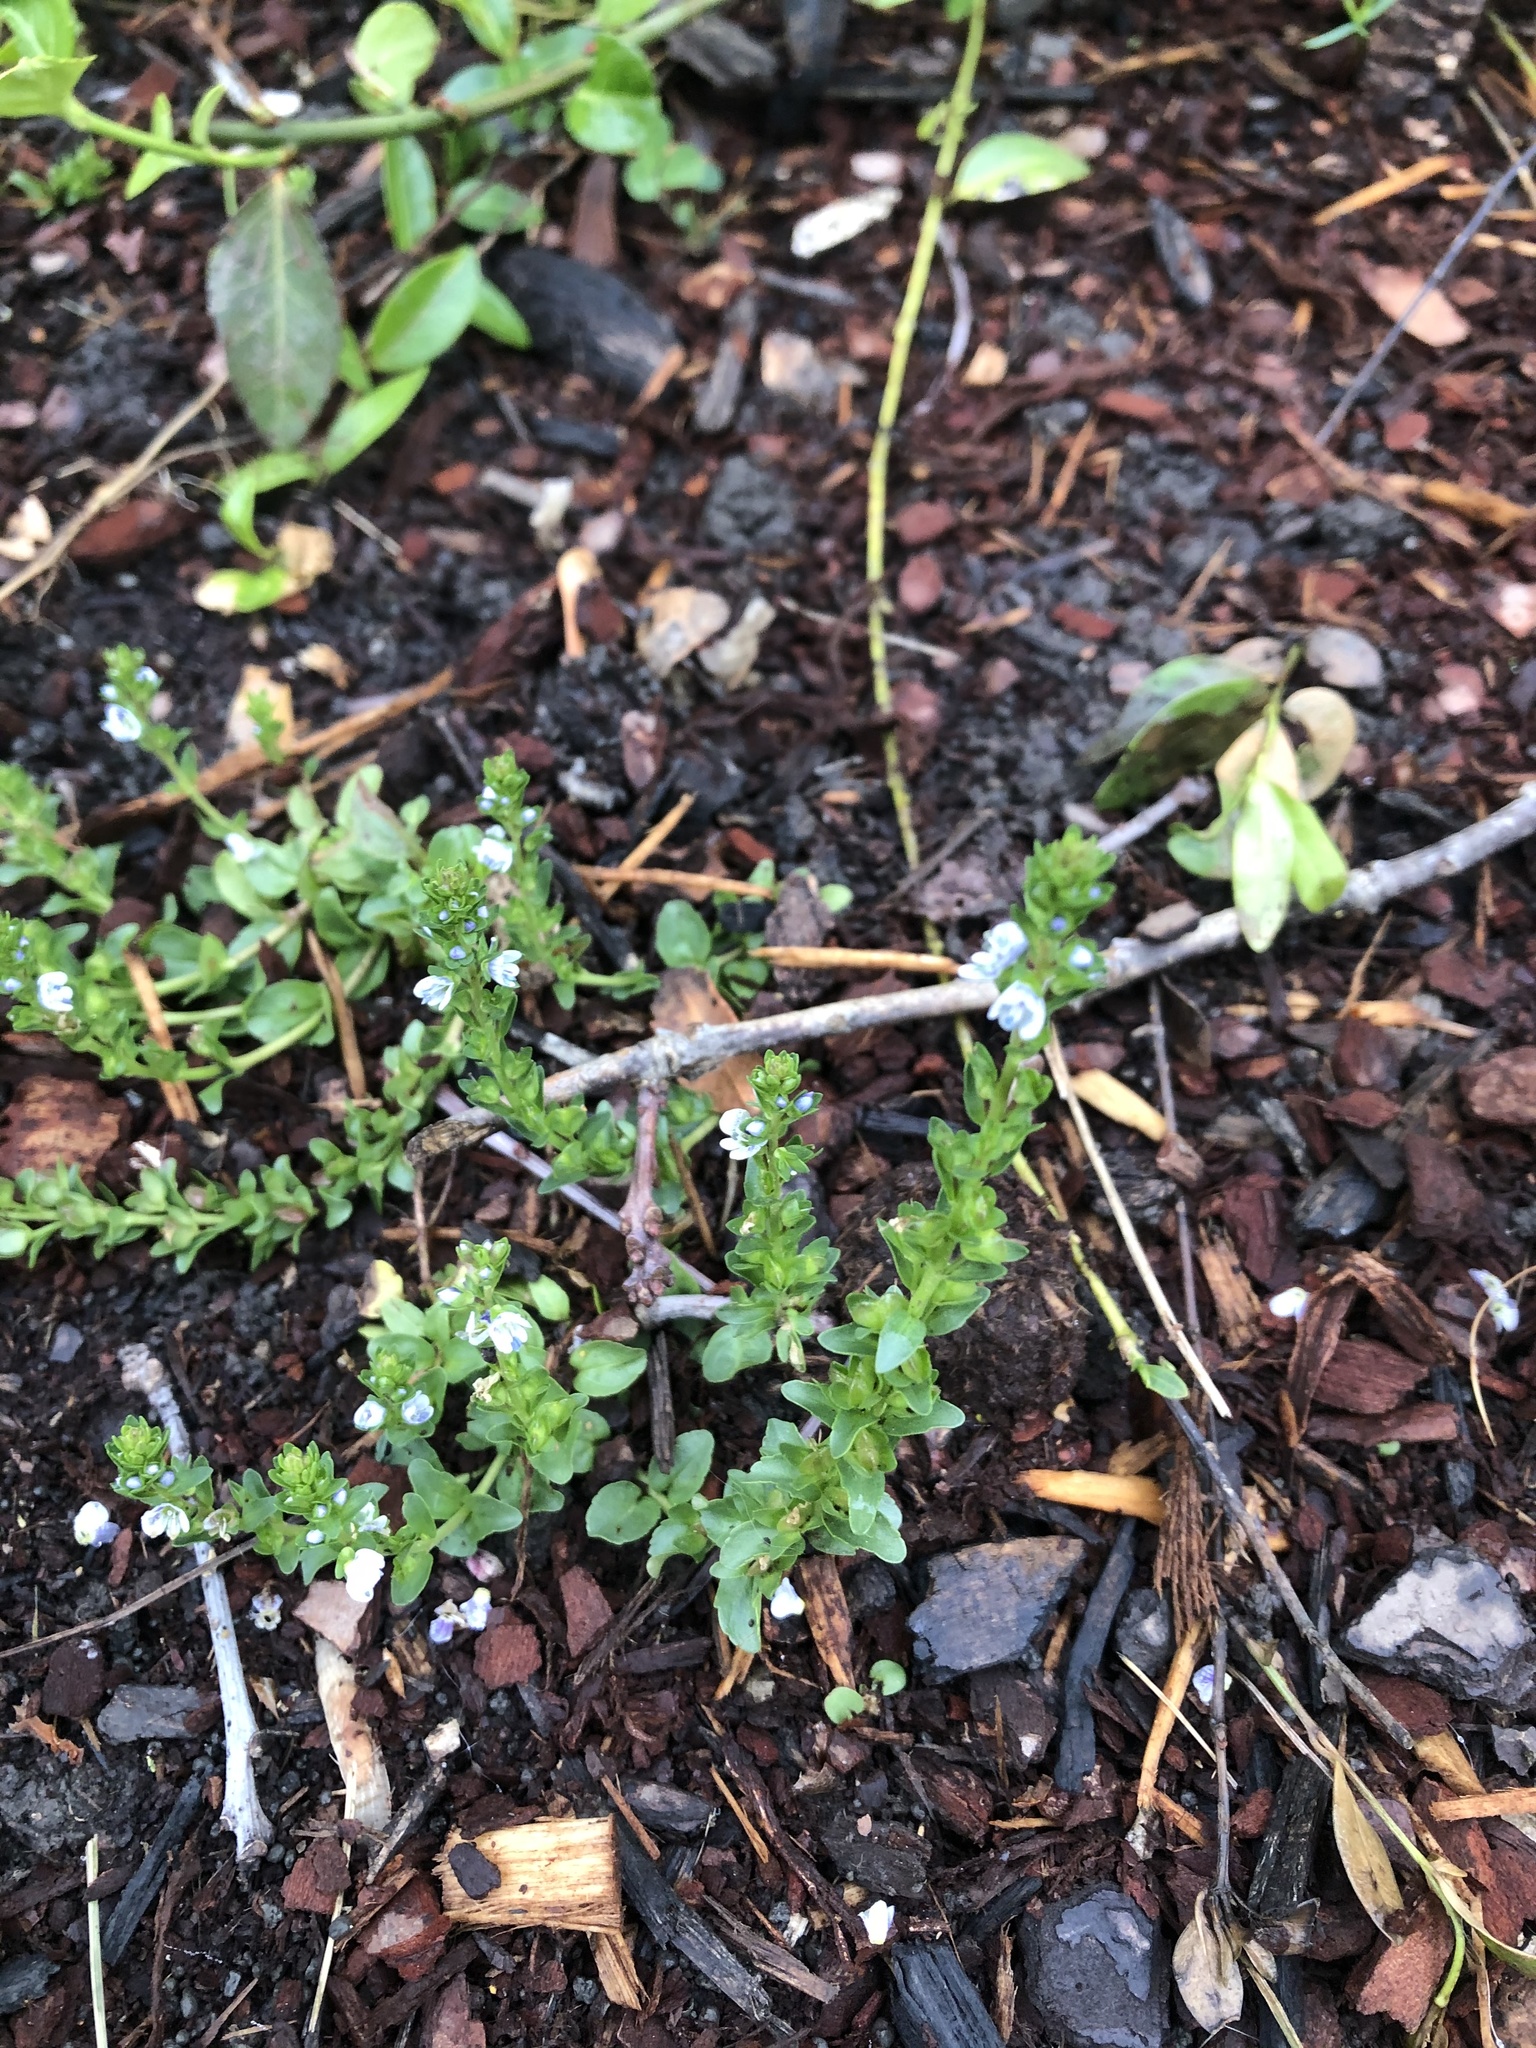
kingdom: Plantae
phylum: Tracheophyta
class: Magnoliopsida
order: Lamiales
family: Plantaginaceae
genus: Veronica
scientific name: Veronica serpyllifolia
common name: Thyme-leaved speedwell
